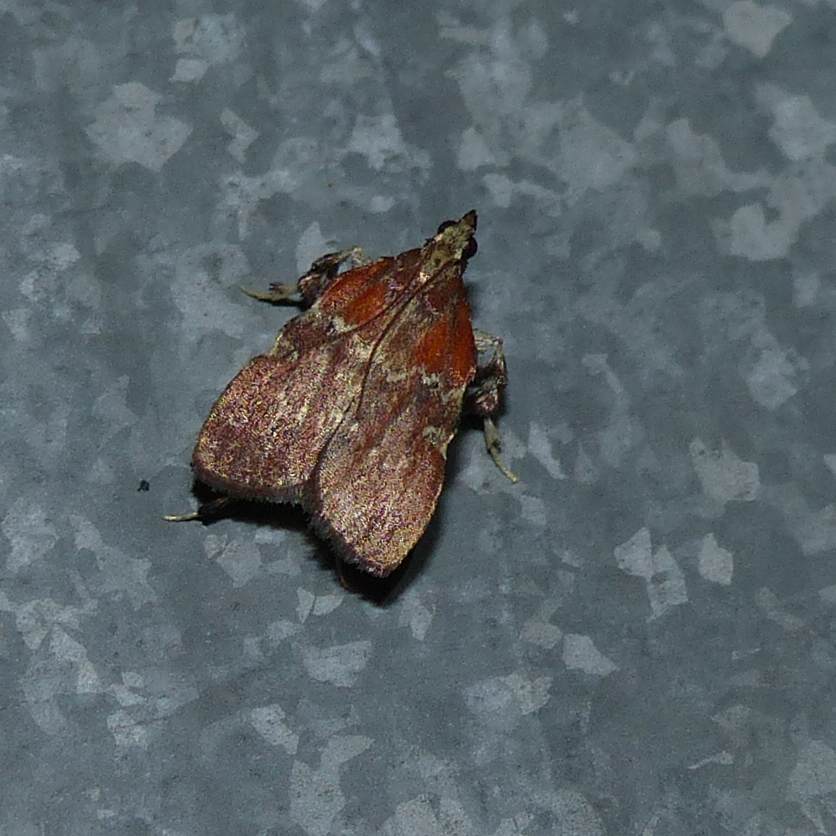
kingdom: Animalia
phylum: Arthropoda
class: Insecta
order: Lepidoptera
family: Pyralidae
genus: Galasa
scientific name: Galasa nigrinodis
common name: Boxwood leaftier moth
